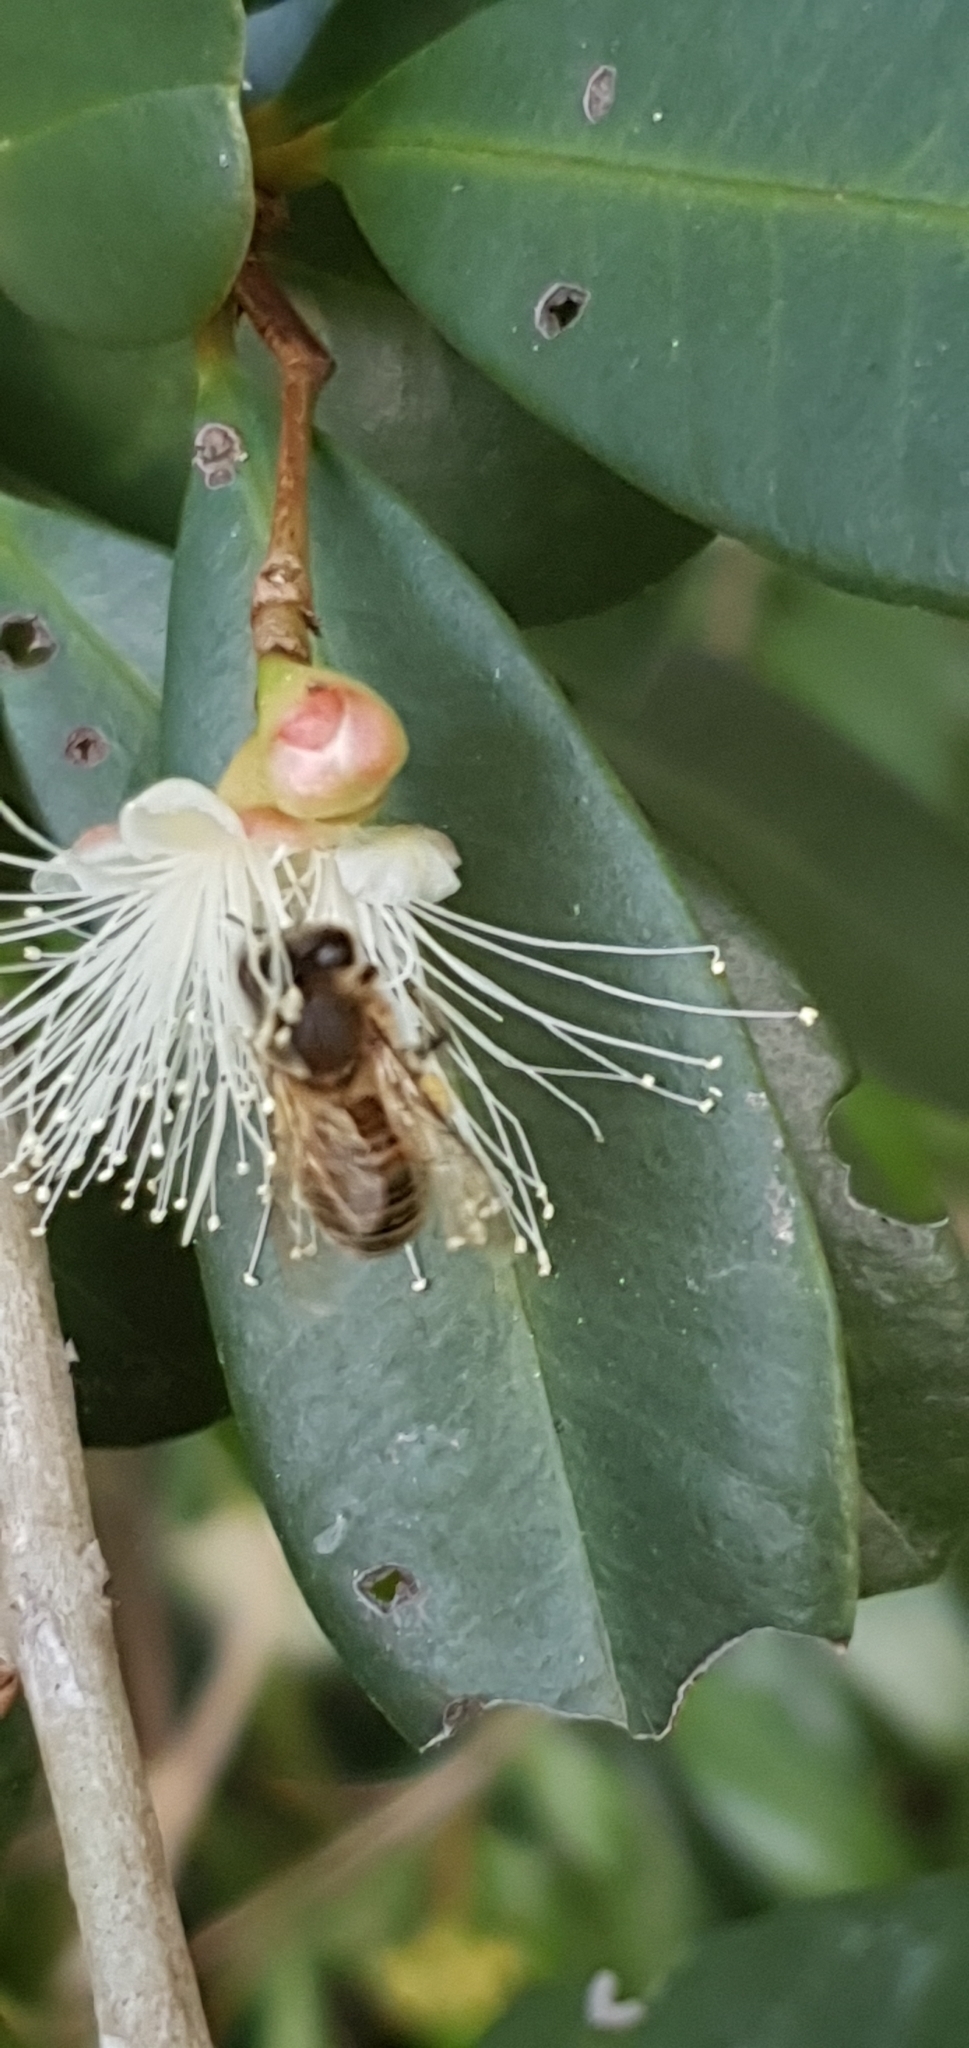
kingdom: Animalia
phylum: Arthropoda
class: Insecta
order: Hymenoptera
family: Apidae
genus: Apis
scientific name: Apis mellifera
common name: Honey bee
